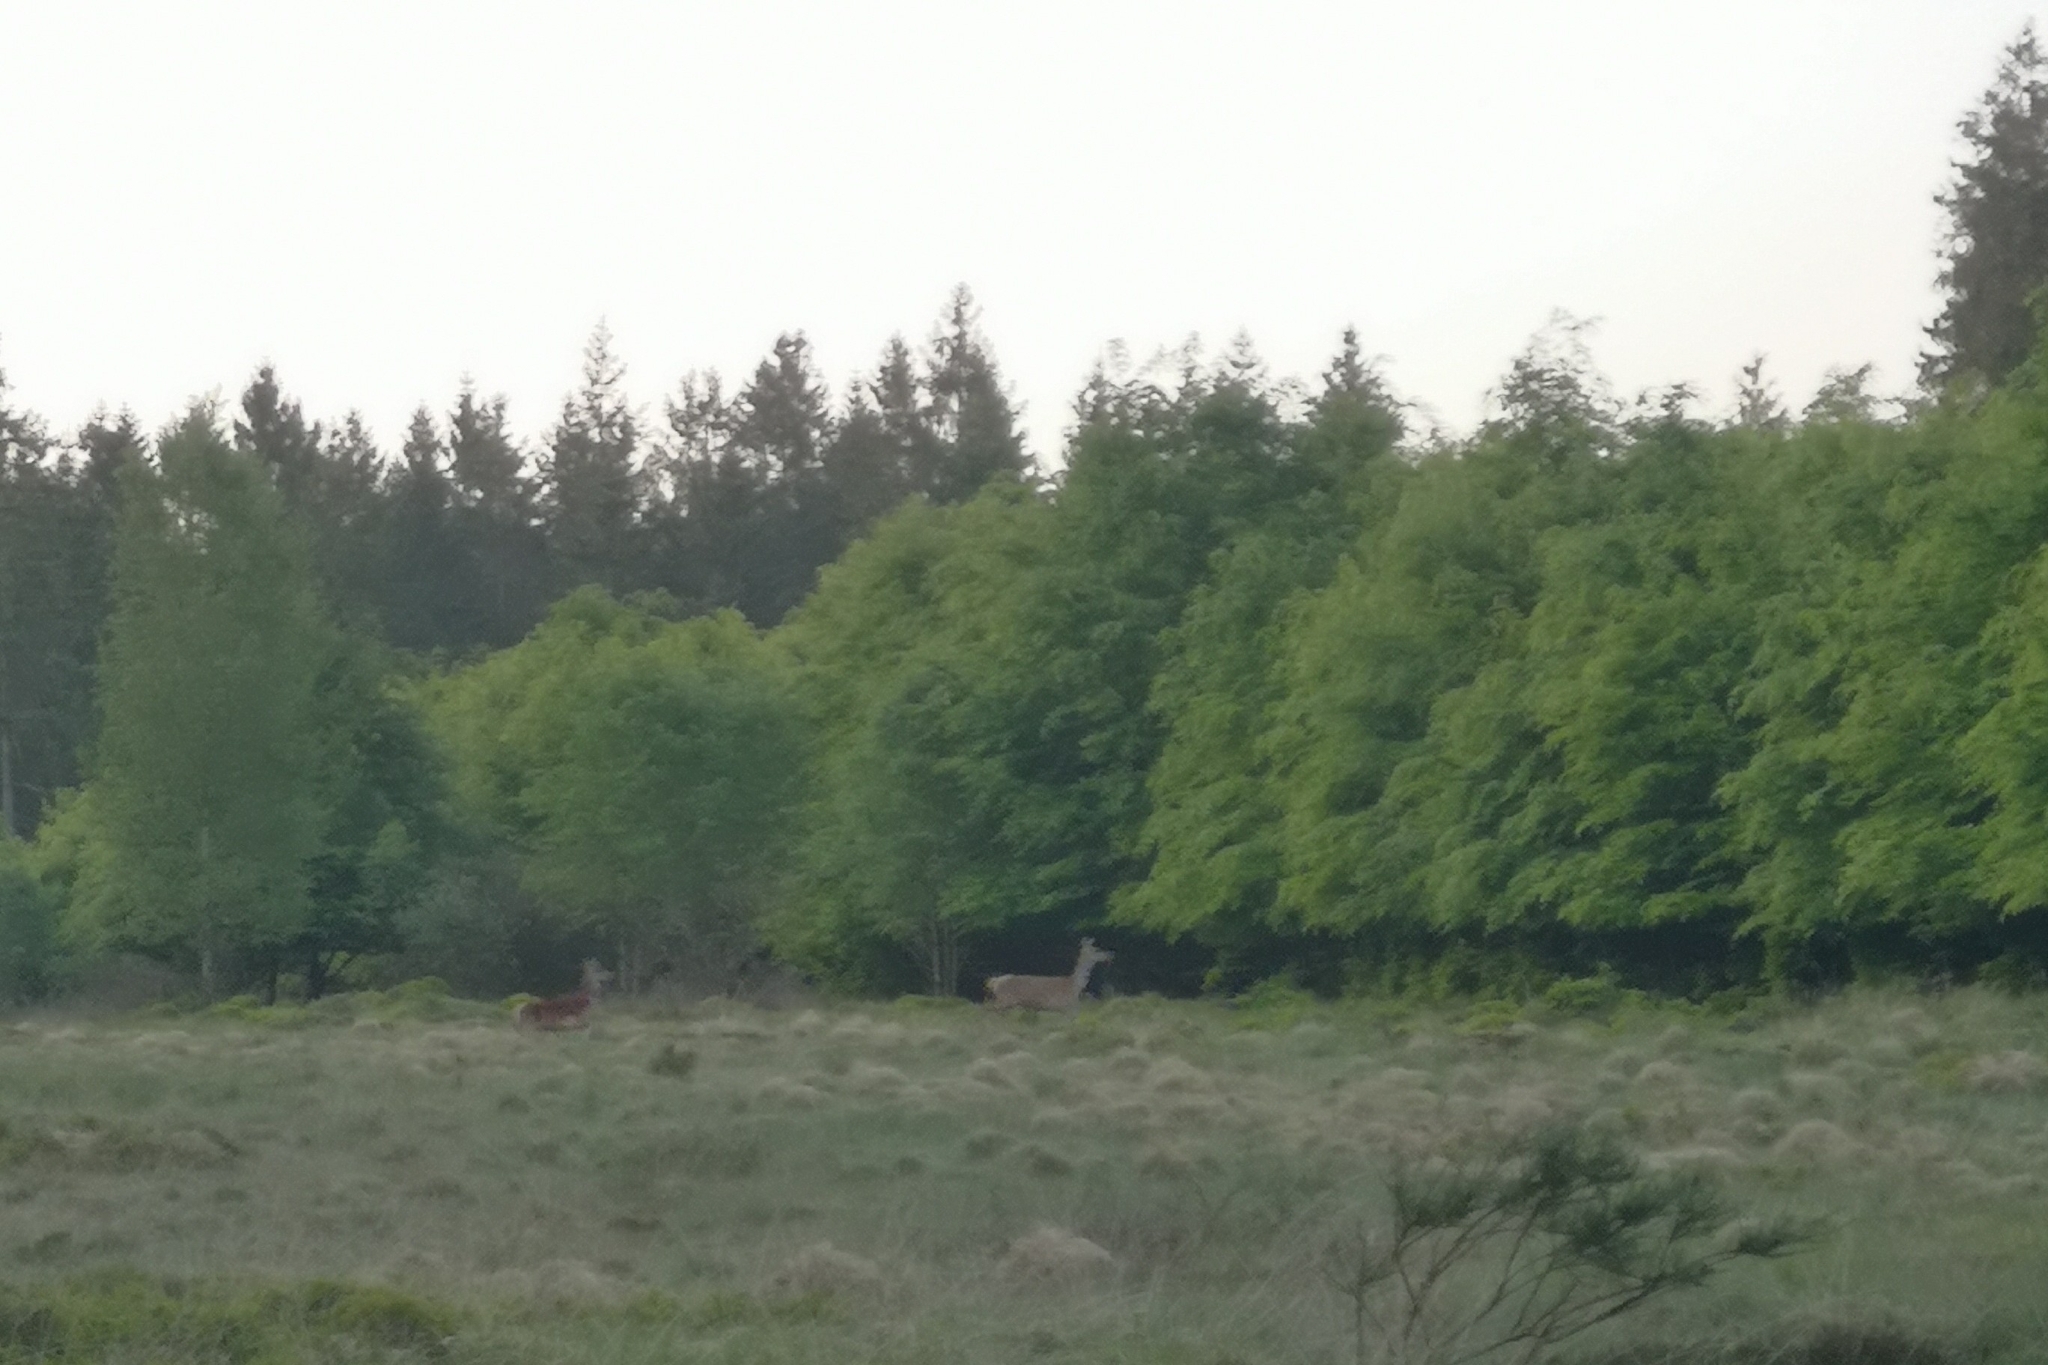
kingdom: Animalia
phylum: Chordata
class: Mammalia
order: Artiodactyla
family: Cervidae
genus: Cervus
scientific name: Cervus elaphus
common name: Red deer
